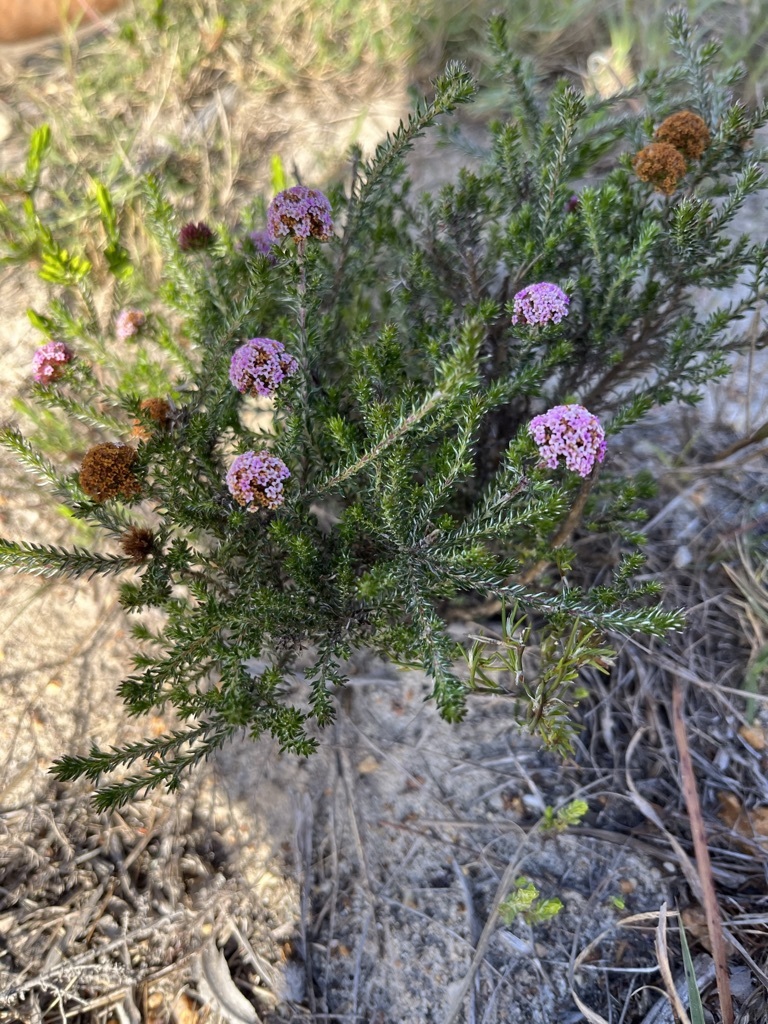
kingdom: Plantae
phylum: Tracheophyta
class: Magnoliopsida
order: Asterales
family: Asteraceae
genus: Stoebe
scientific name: Stoebe capitata
